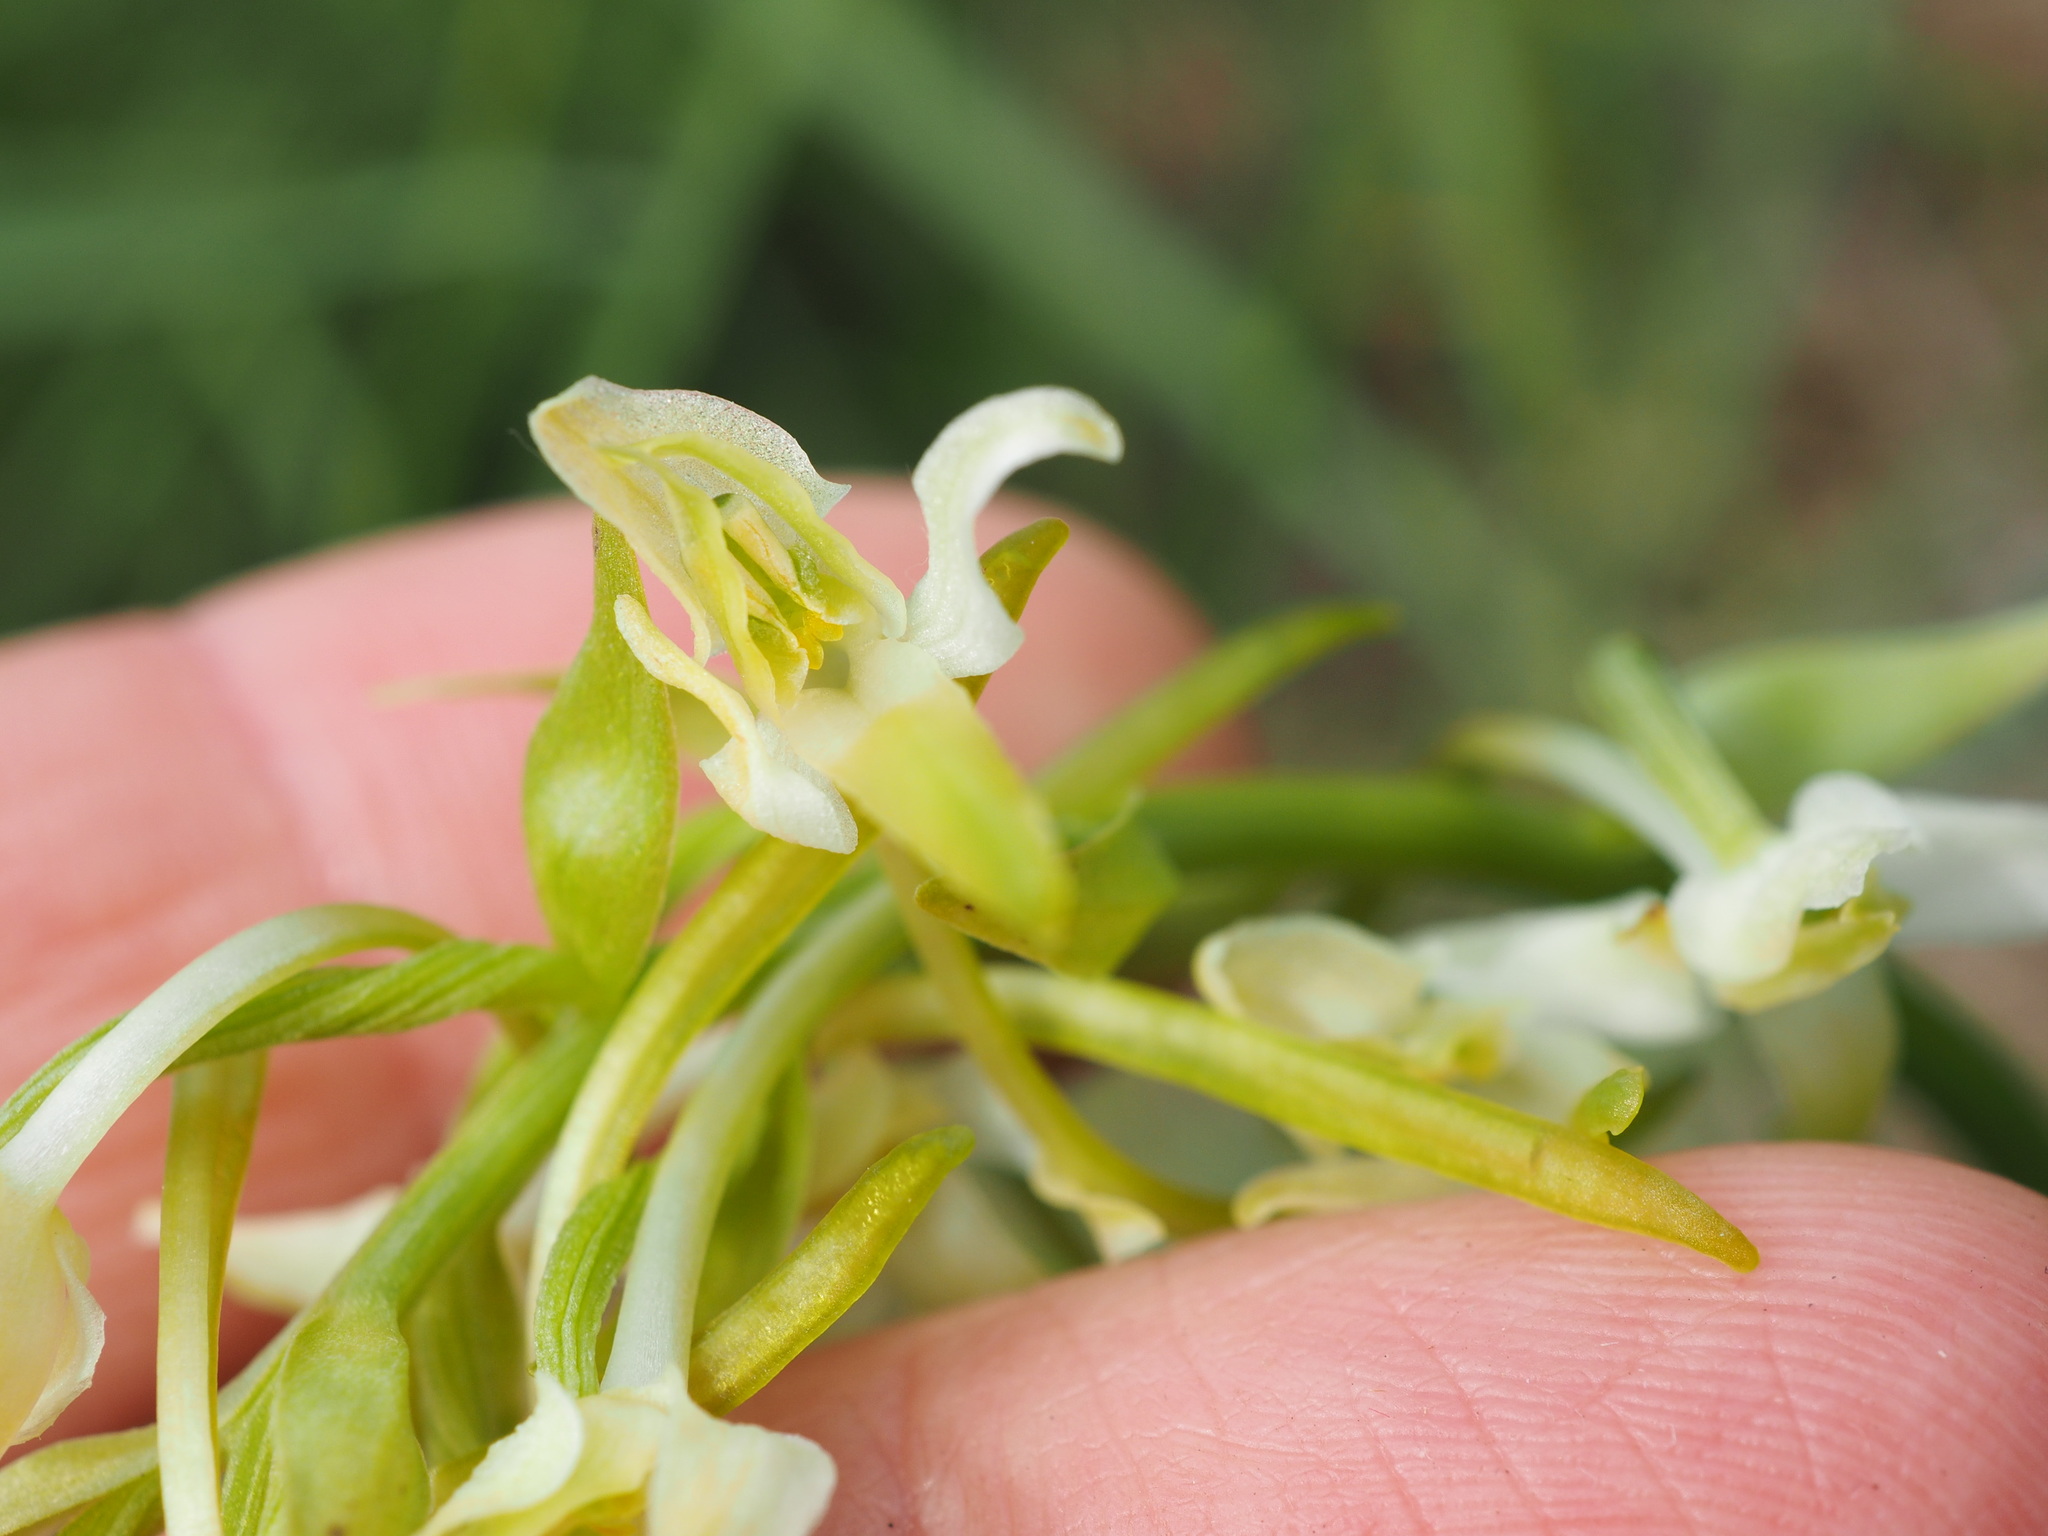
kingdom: Plantae
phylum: Tracheophyta
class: Liliopsida
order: Asparagales
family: Orchidaceae
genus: Platanthera
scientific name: Platanthera bifolia
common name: Lesser butterfly-orchid
